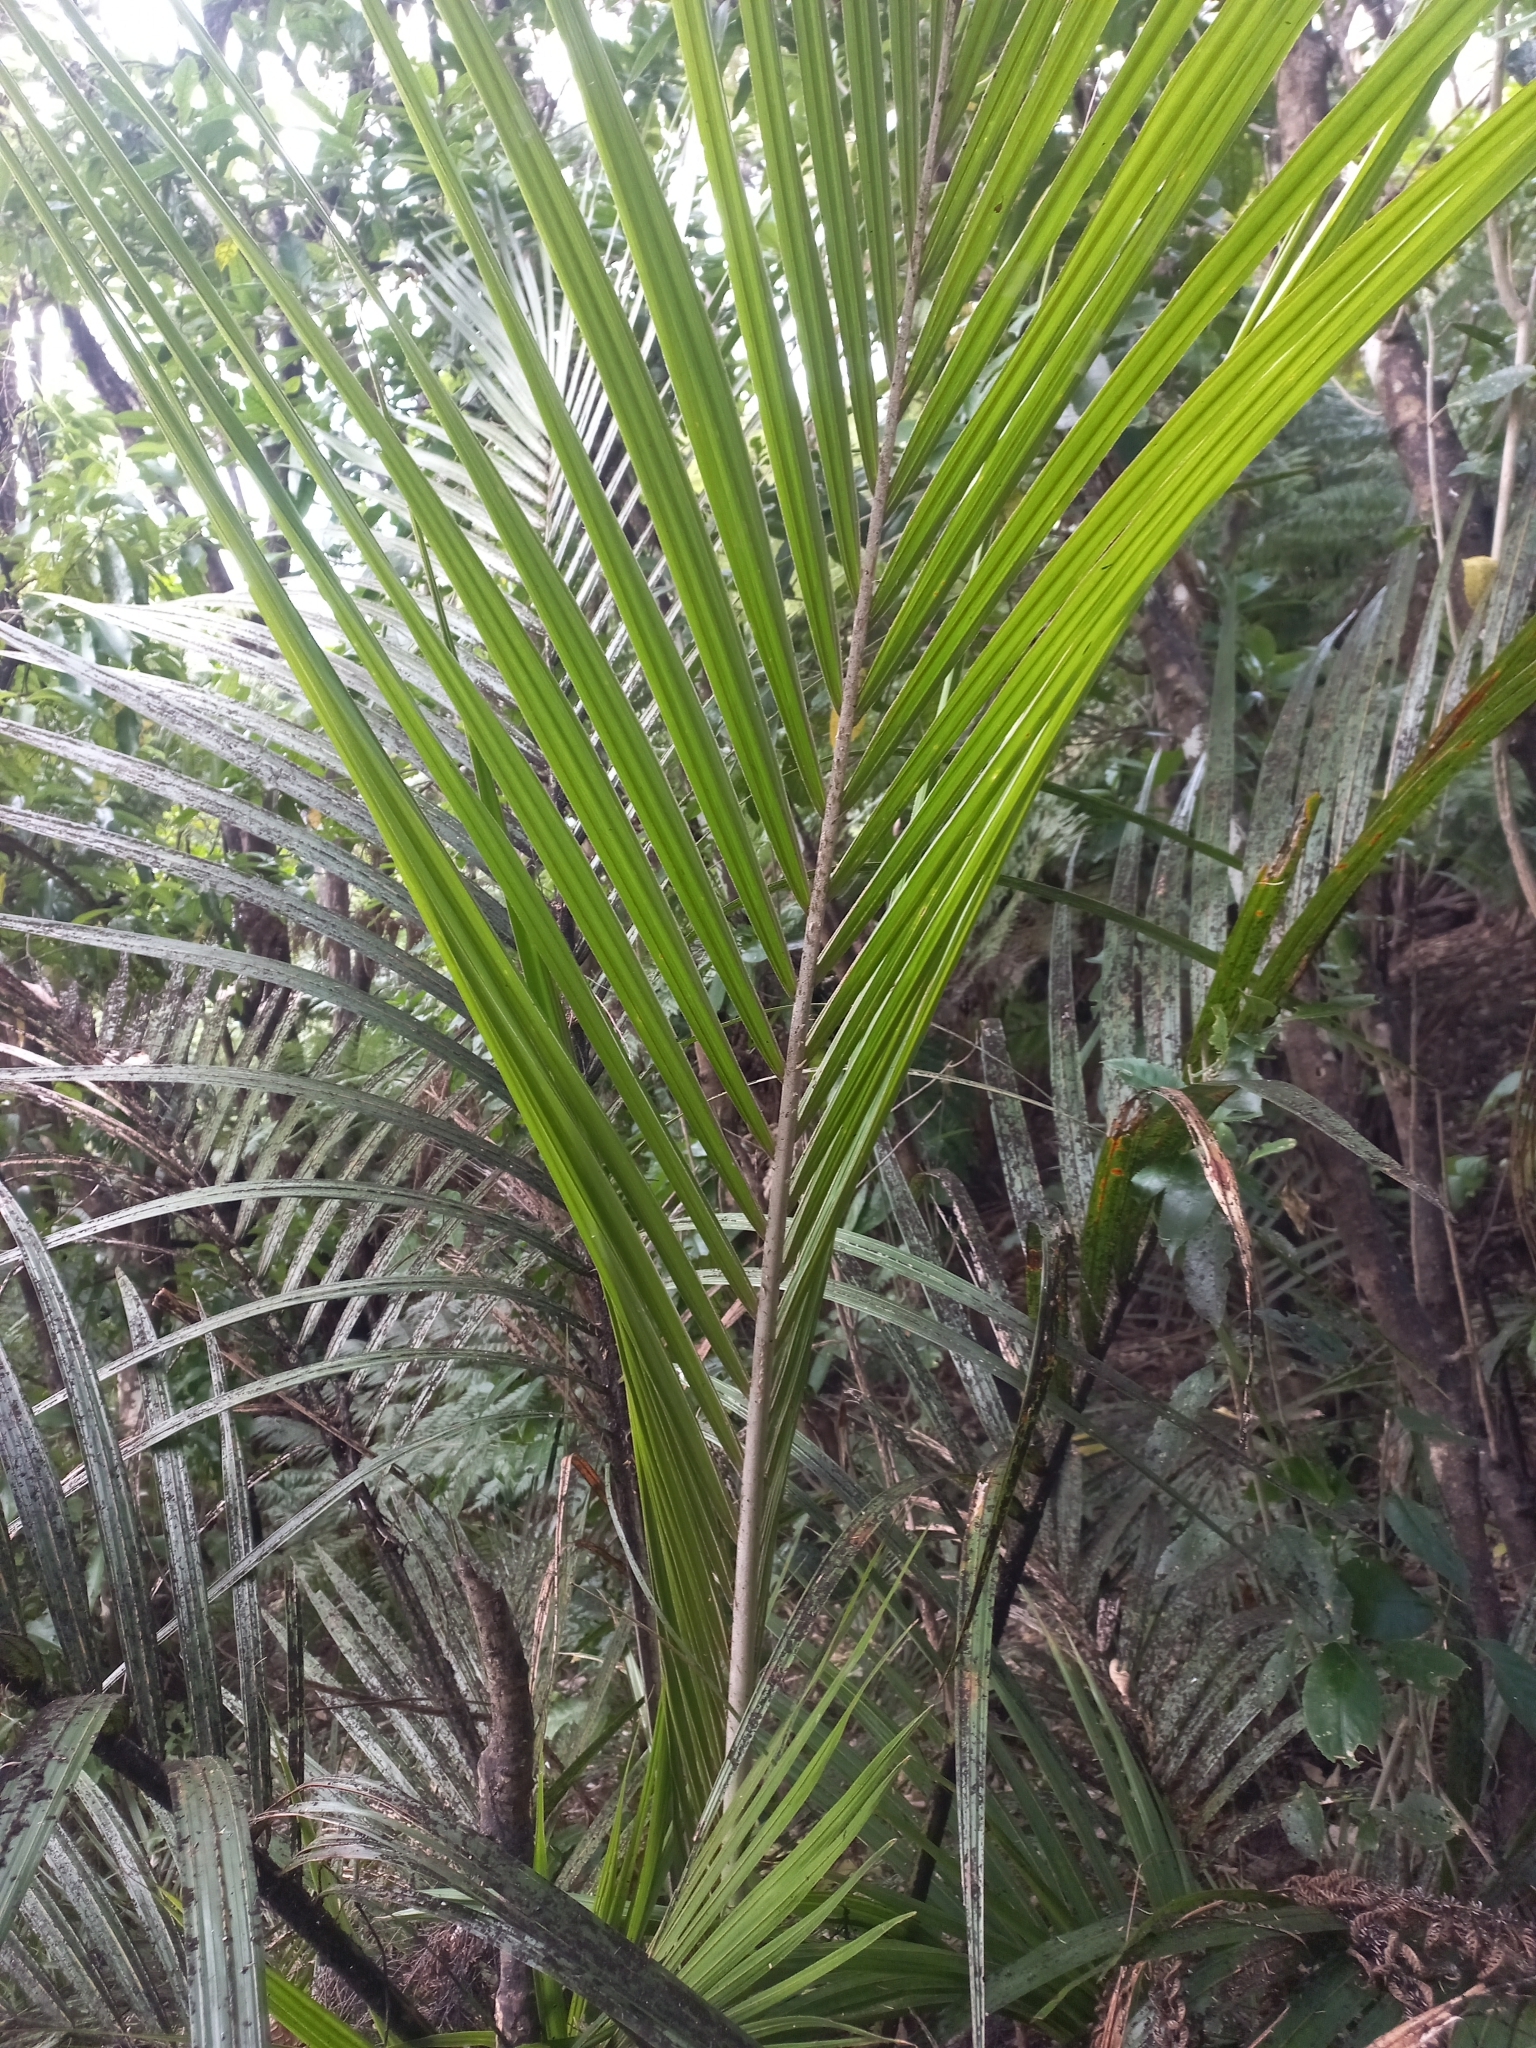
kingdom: Plantae
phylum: Tracheophyta
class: Liliopsida
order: Arecales
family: Arecaceae
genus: Rhopalostylis
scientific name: Rhopalostylis sapida
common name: Feather-duster palm
